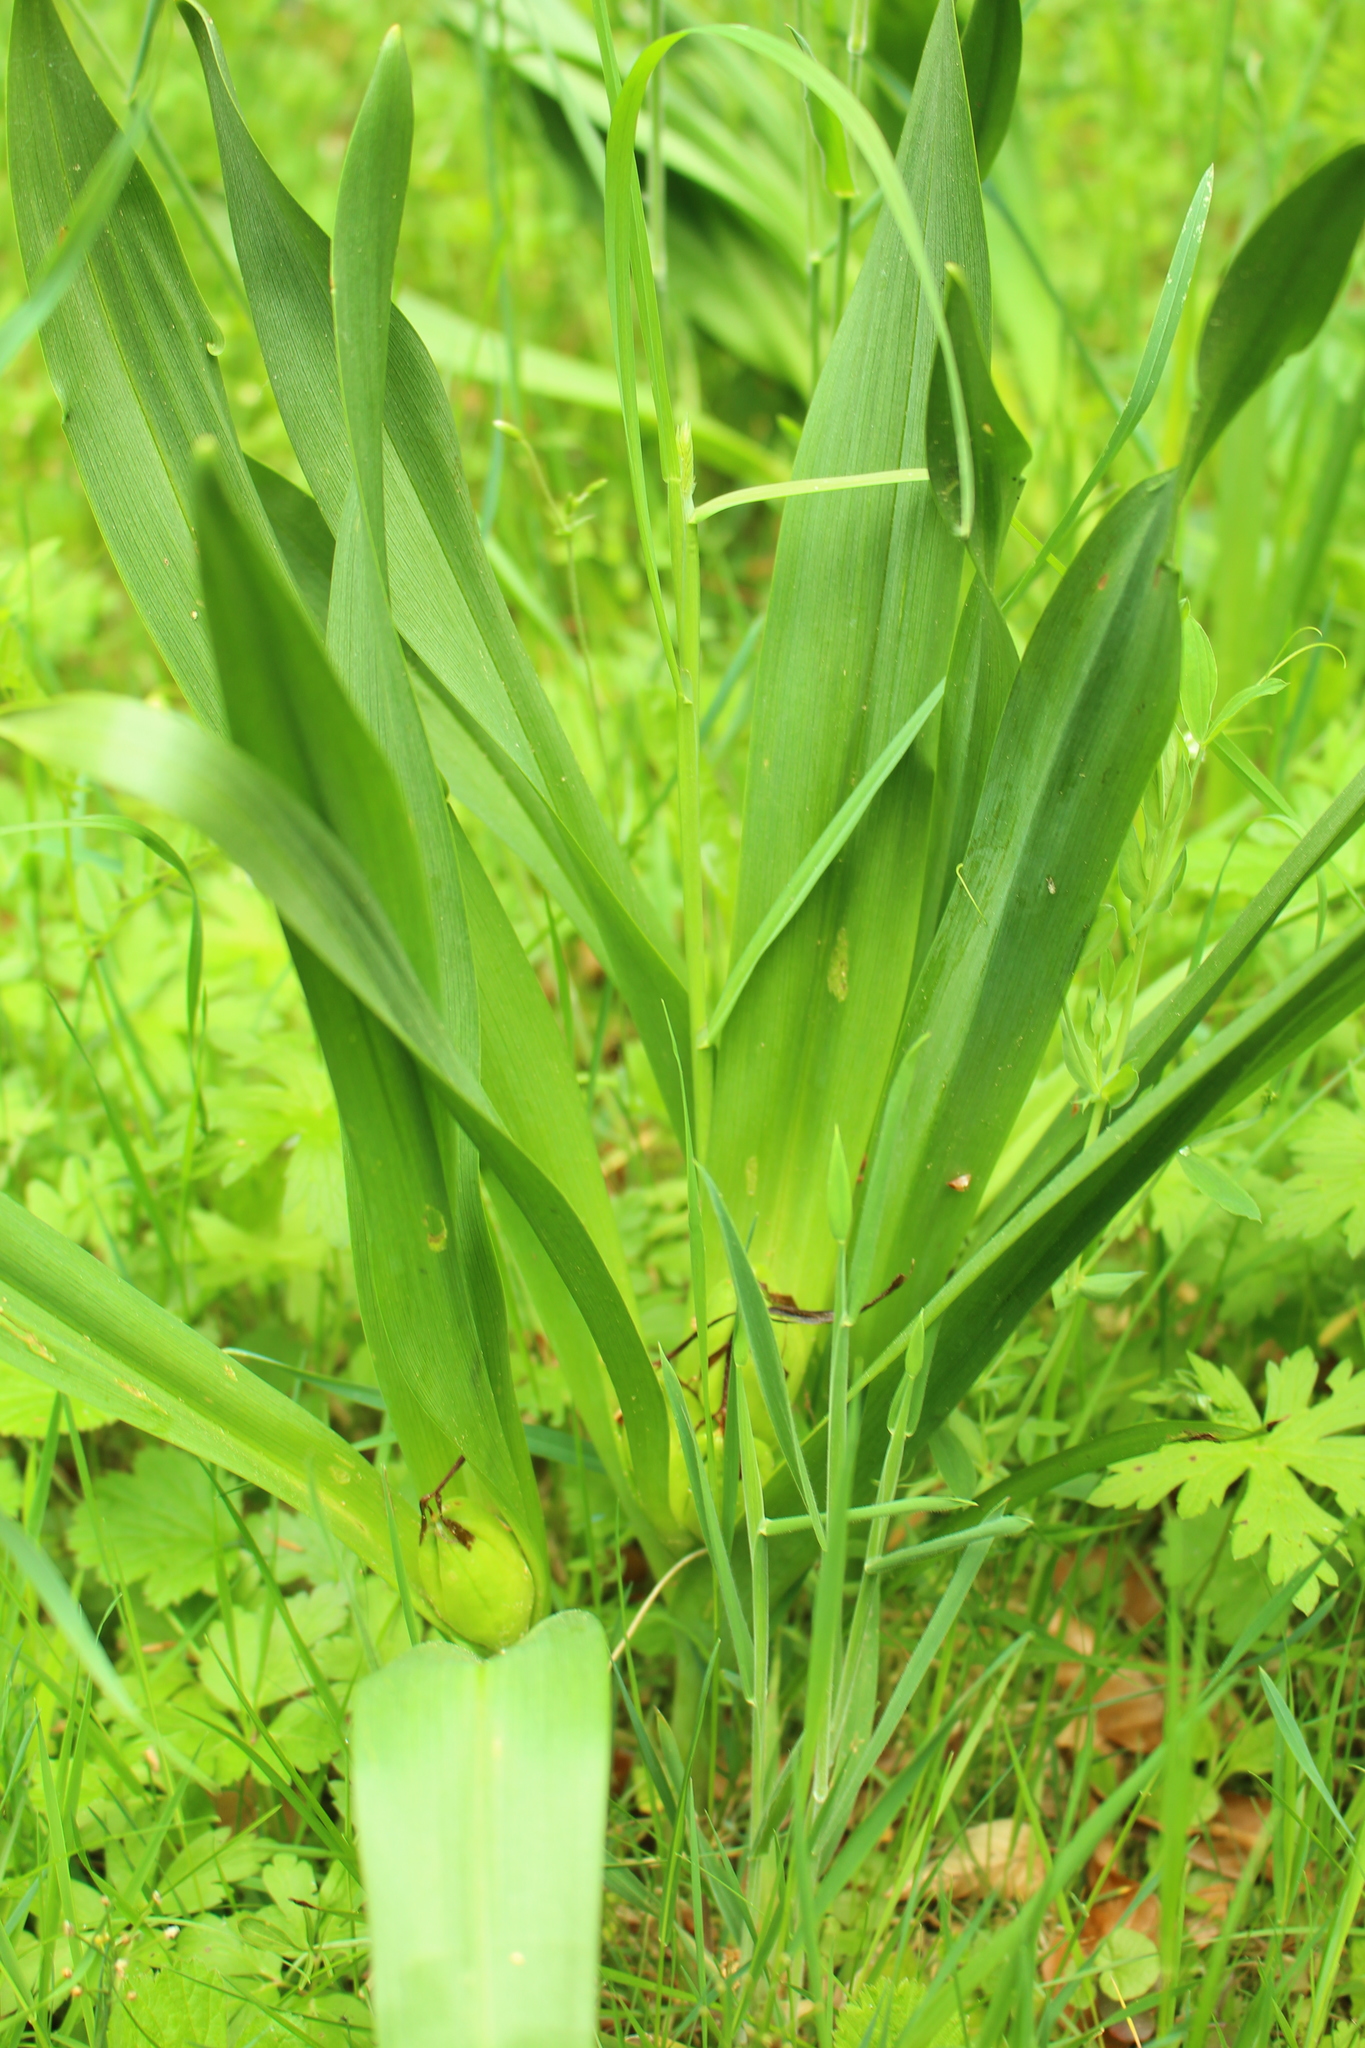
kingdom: Plantae
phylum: Tracheophyta
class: Liliopsida
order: Liliales
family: Colchicaceae
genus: Colchicum
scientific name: Colchicum autumnale
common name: Autumn crocus
